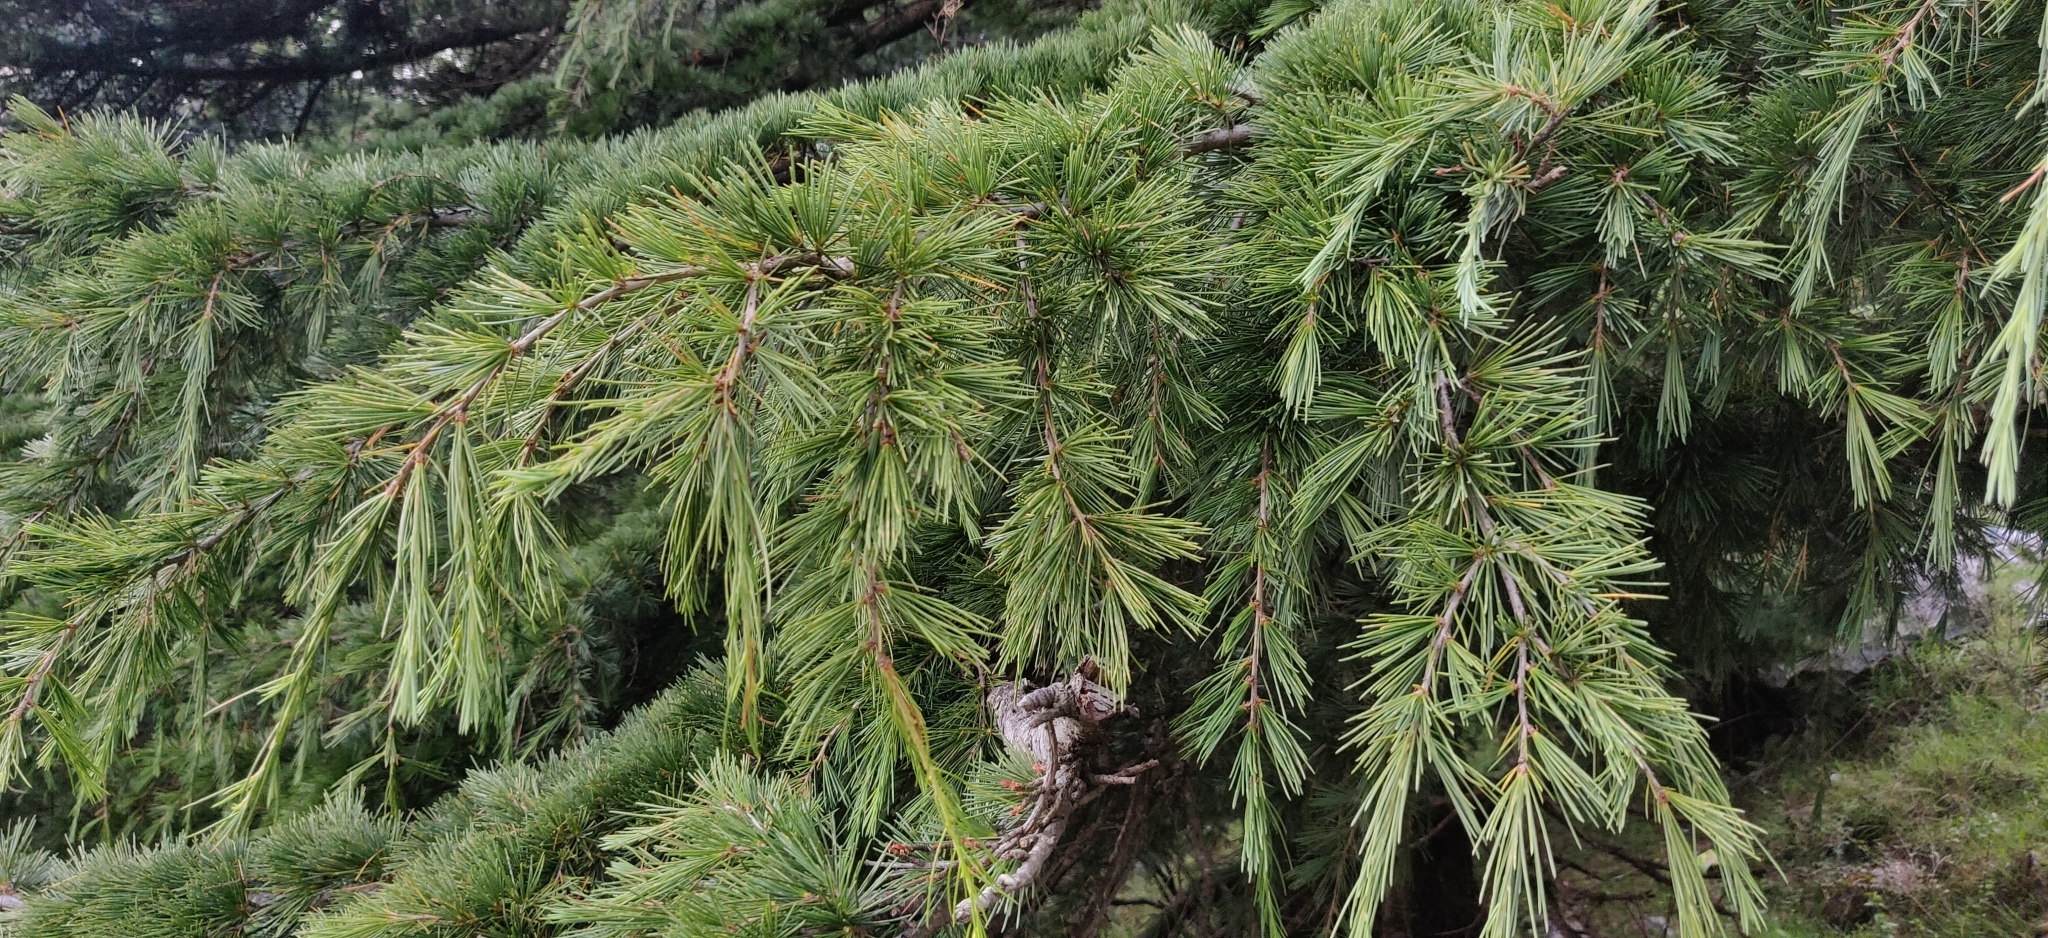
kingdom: Plantae
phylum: Tracheophyta
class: Pinopsida
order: Pinales
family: Pinaceae
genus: Cedrus
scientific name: Cedrus deodara
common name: Deodar
